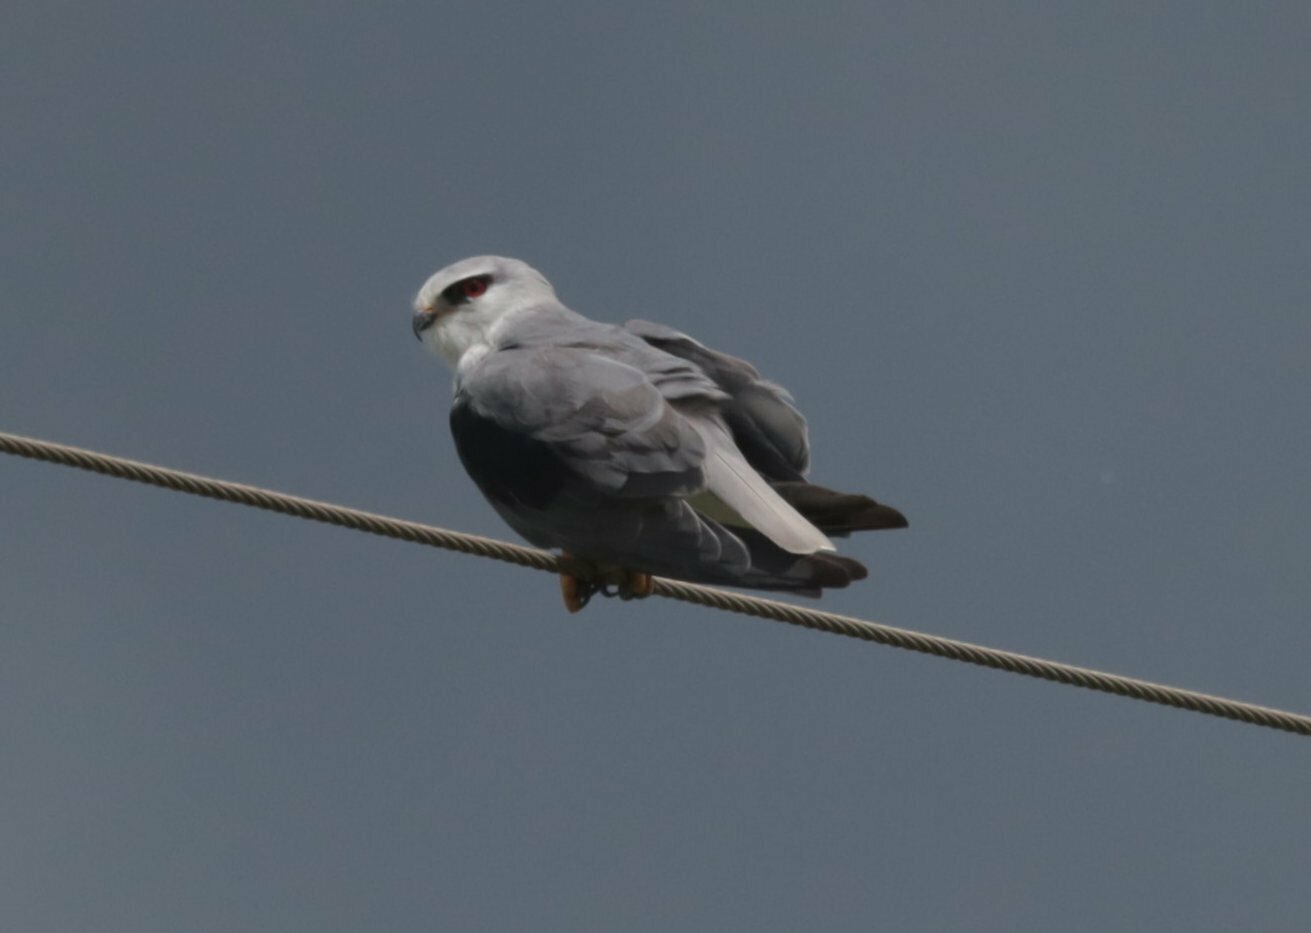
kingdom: Animalia
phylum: Chordata
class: Aves
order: Accipitriformes
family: Accipitridae
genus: Elanus
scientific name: Elanus caeruleus
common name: Black-winged kite
